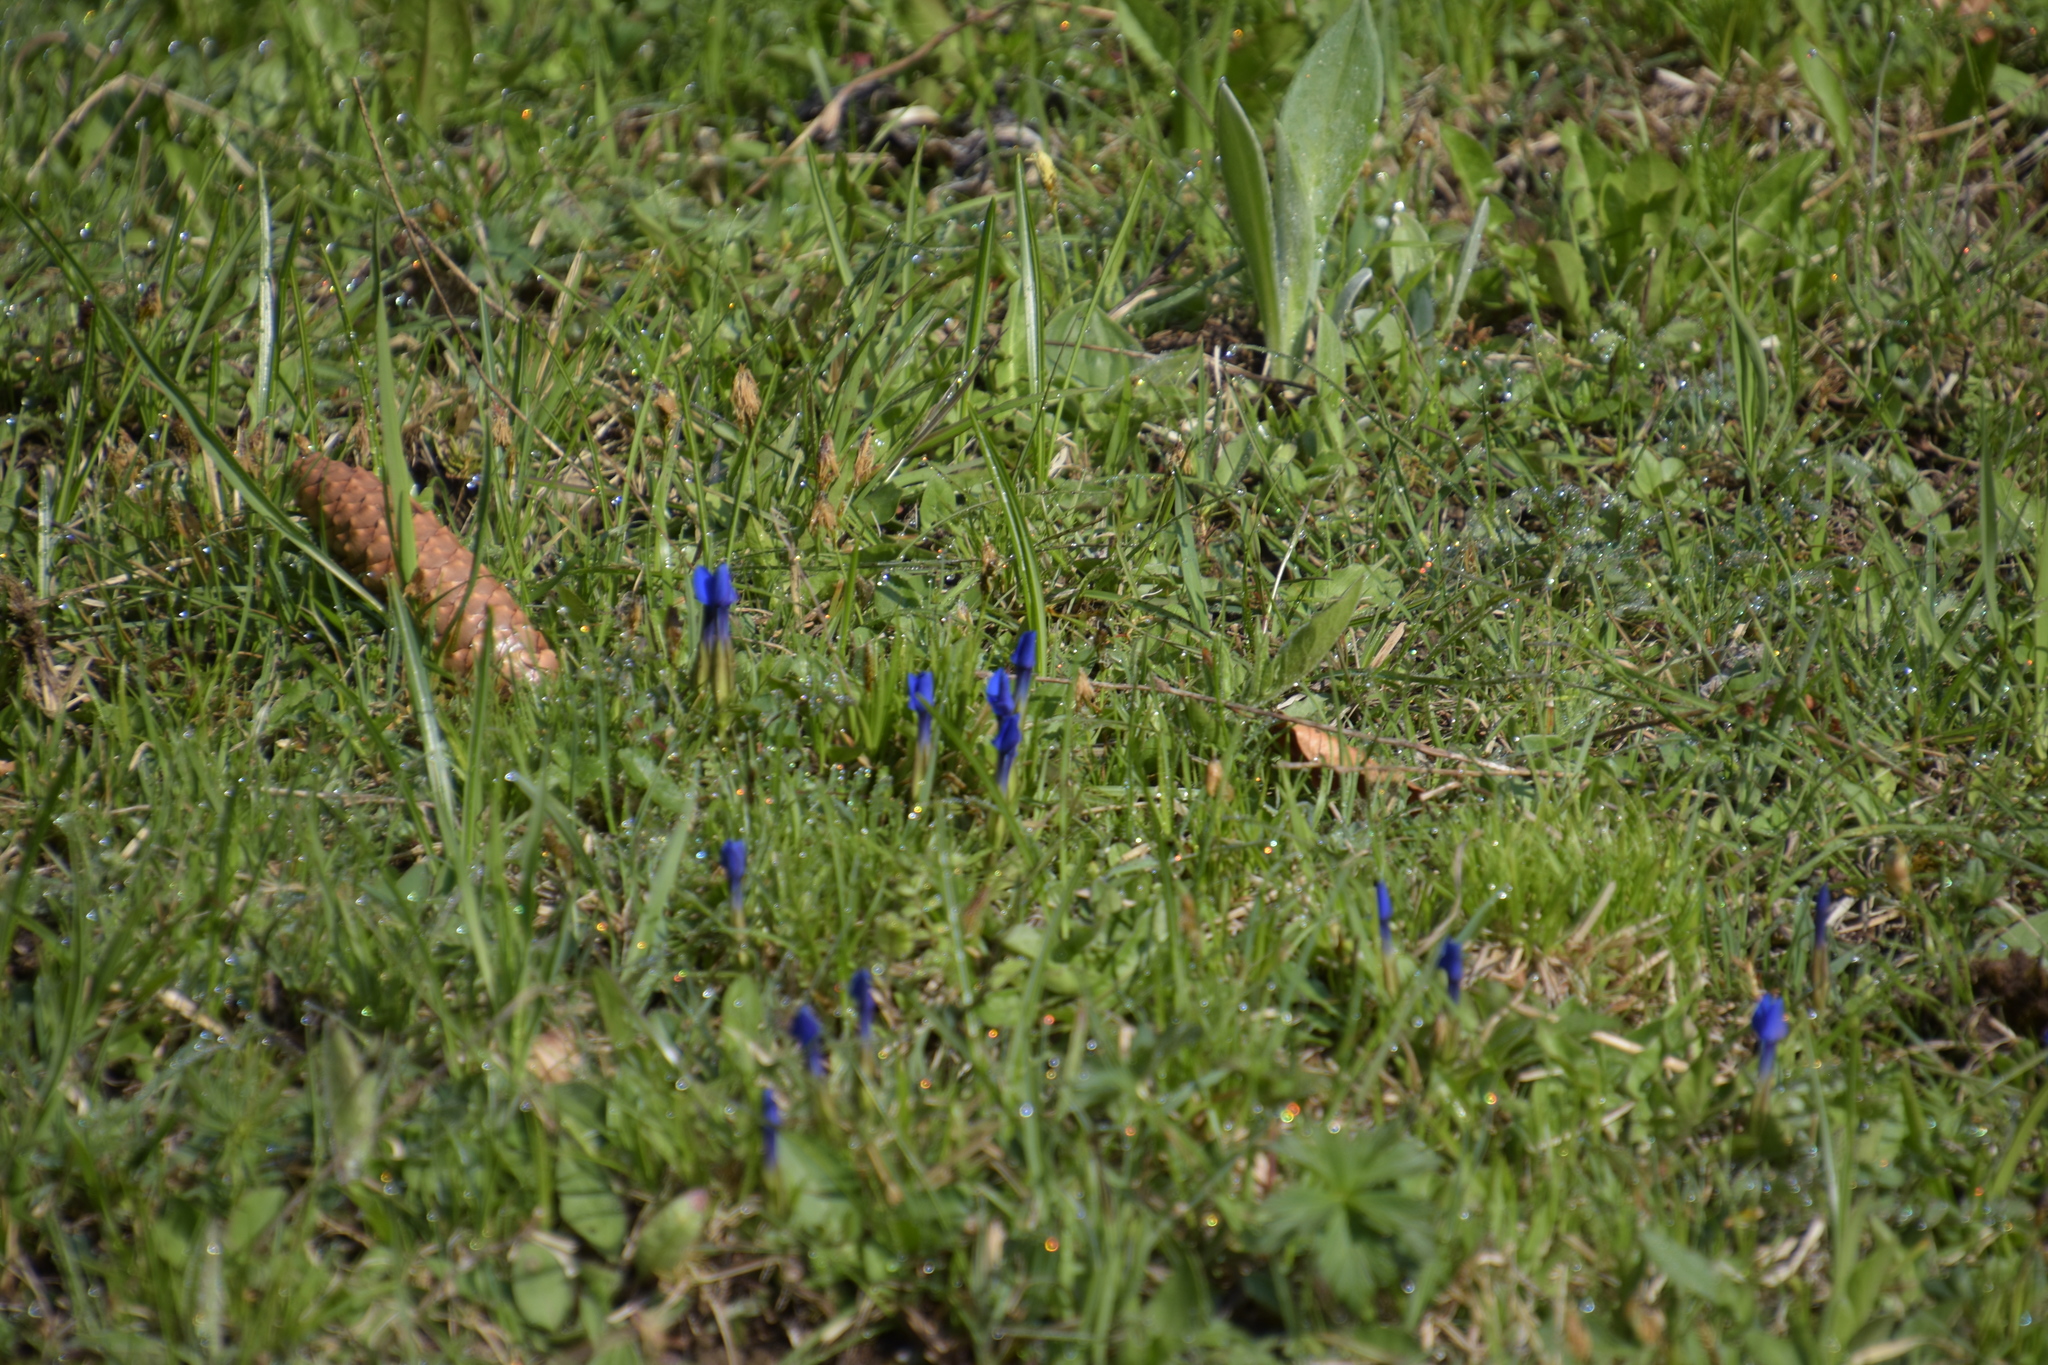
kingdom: Plantae
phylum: Tracheophyta
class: Magnoliopsida
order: Gentianales
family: Gentianaceae
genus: Gentiana
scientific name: Gentiana verna
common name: Spring gentian
